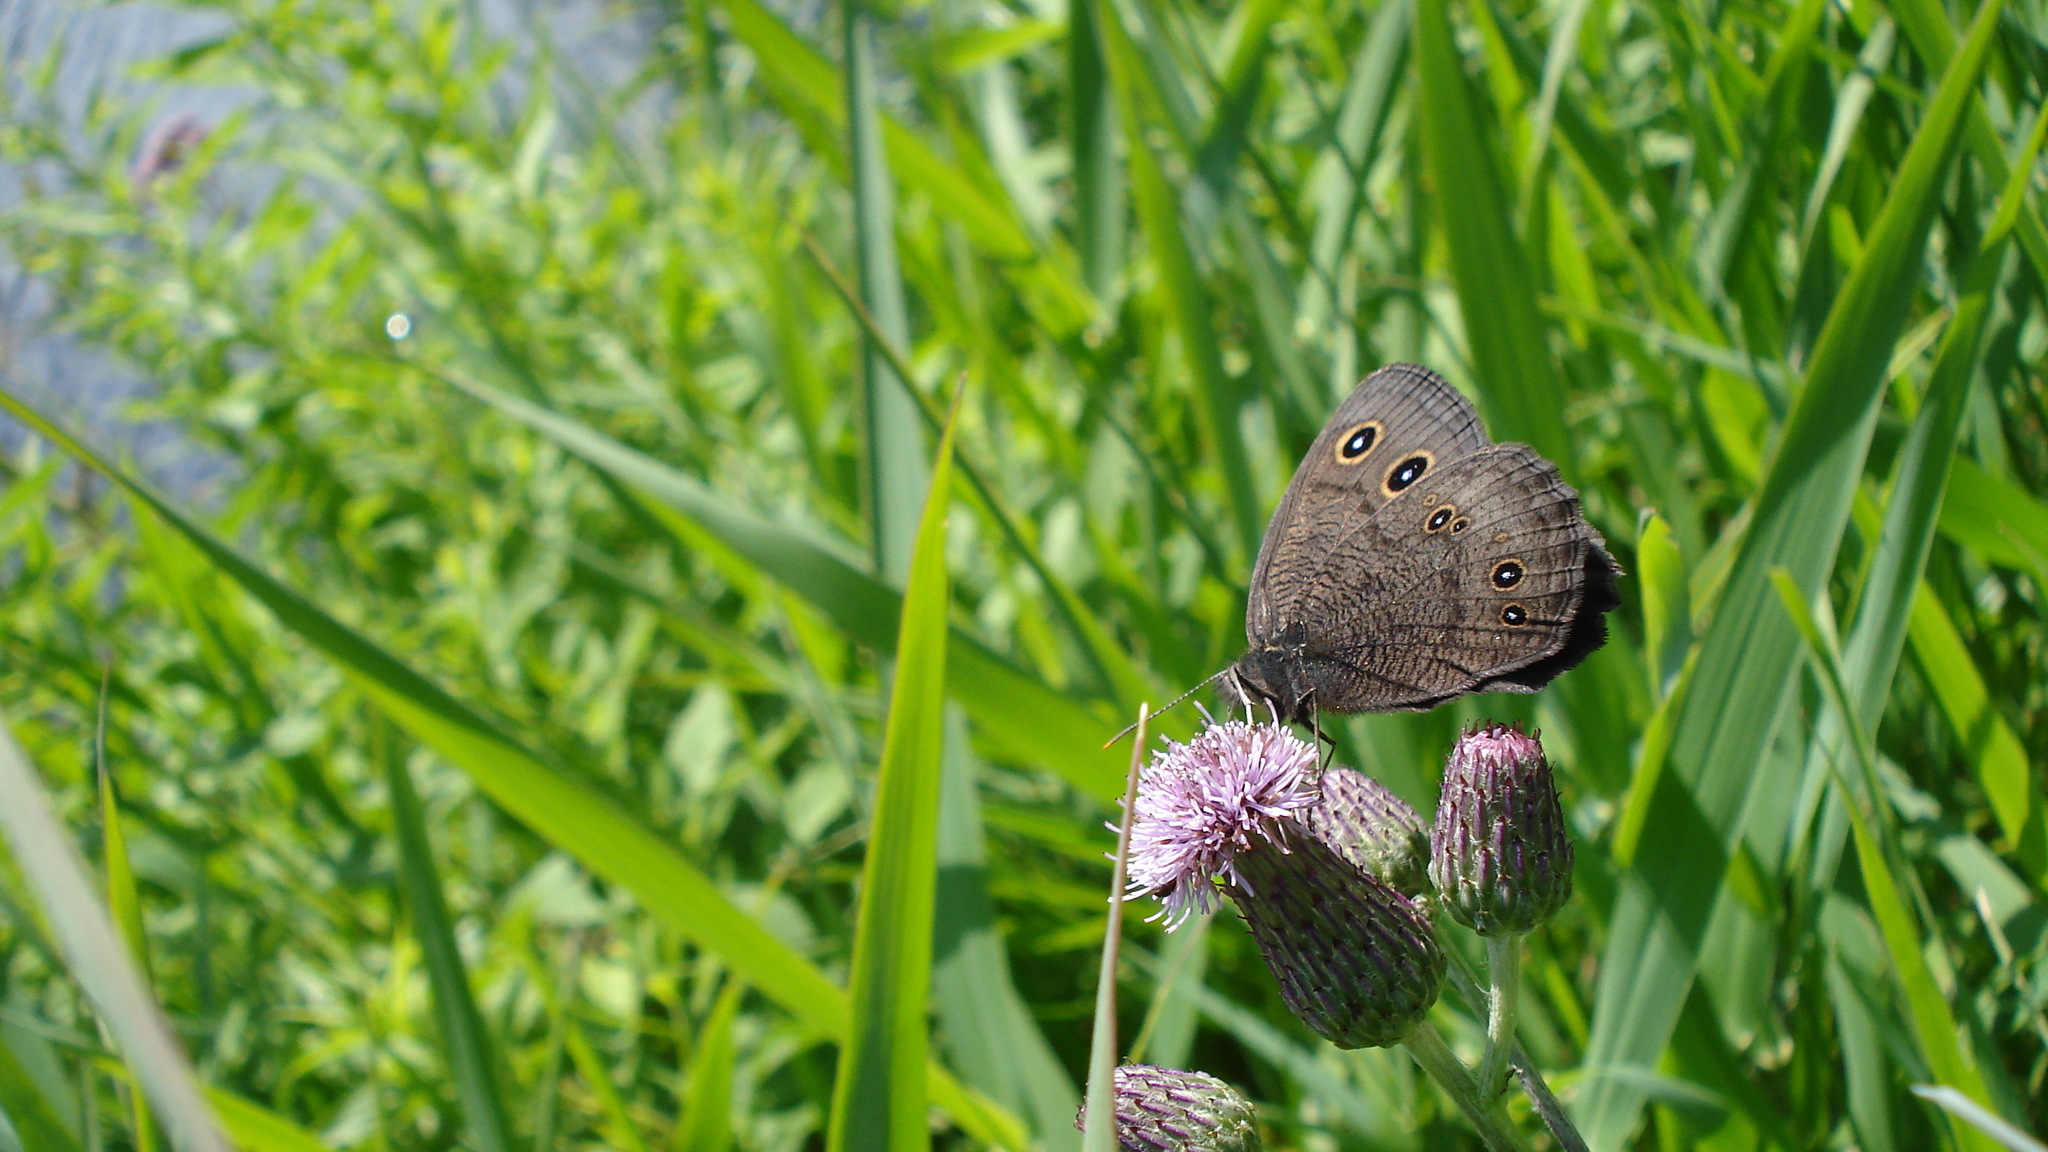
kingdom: Animalia
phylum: Arthropoda
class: Insecta
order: Lepidoptera
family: Nymphalidae
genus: Cercyonis
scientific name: Cercyonis pegala
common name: Common wood-nymph
